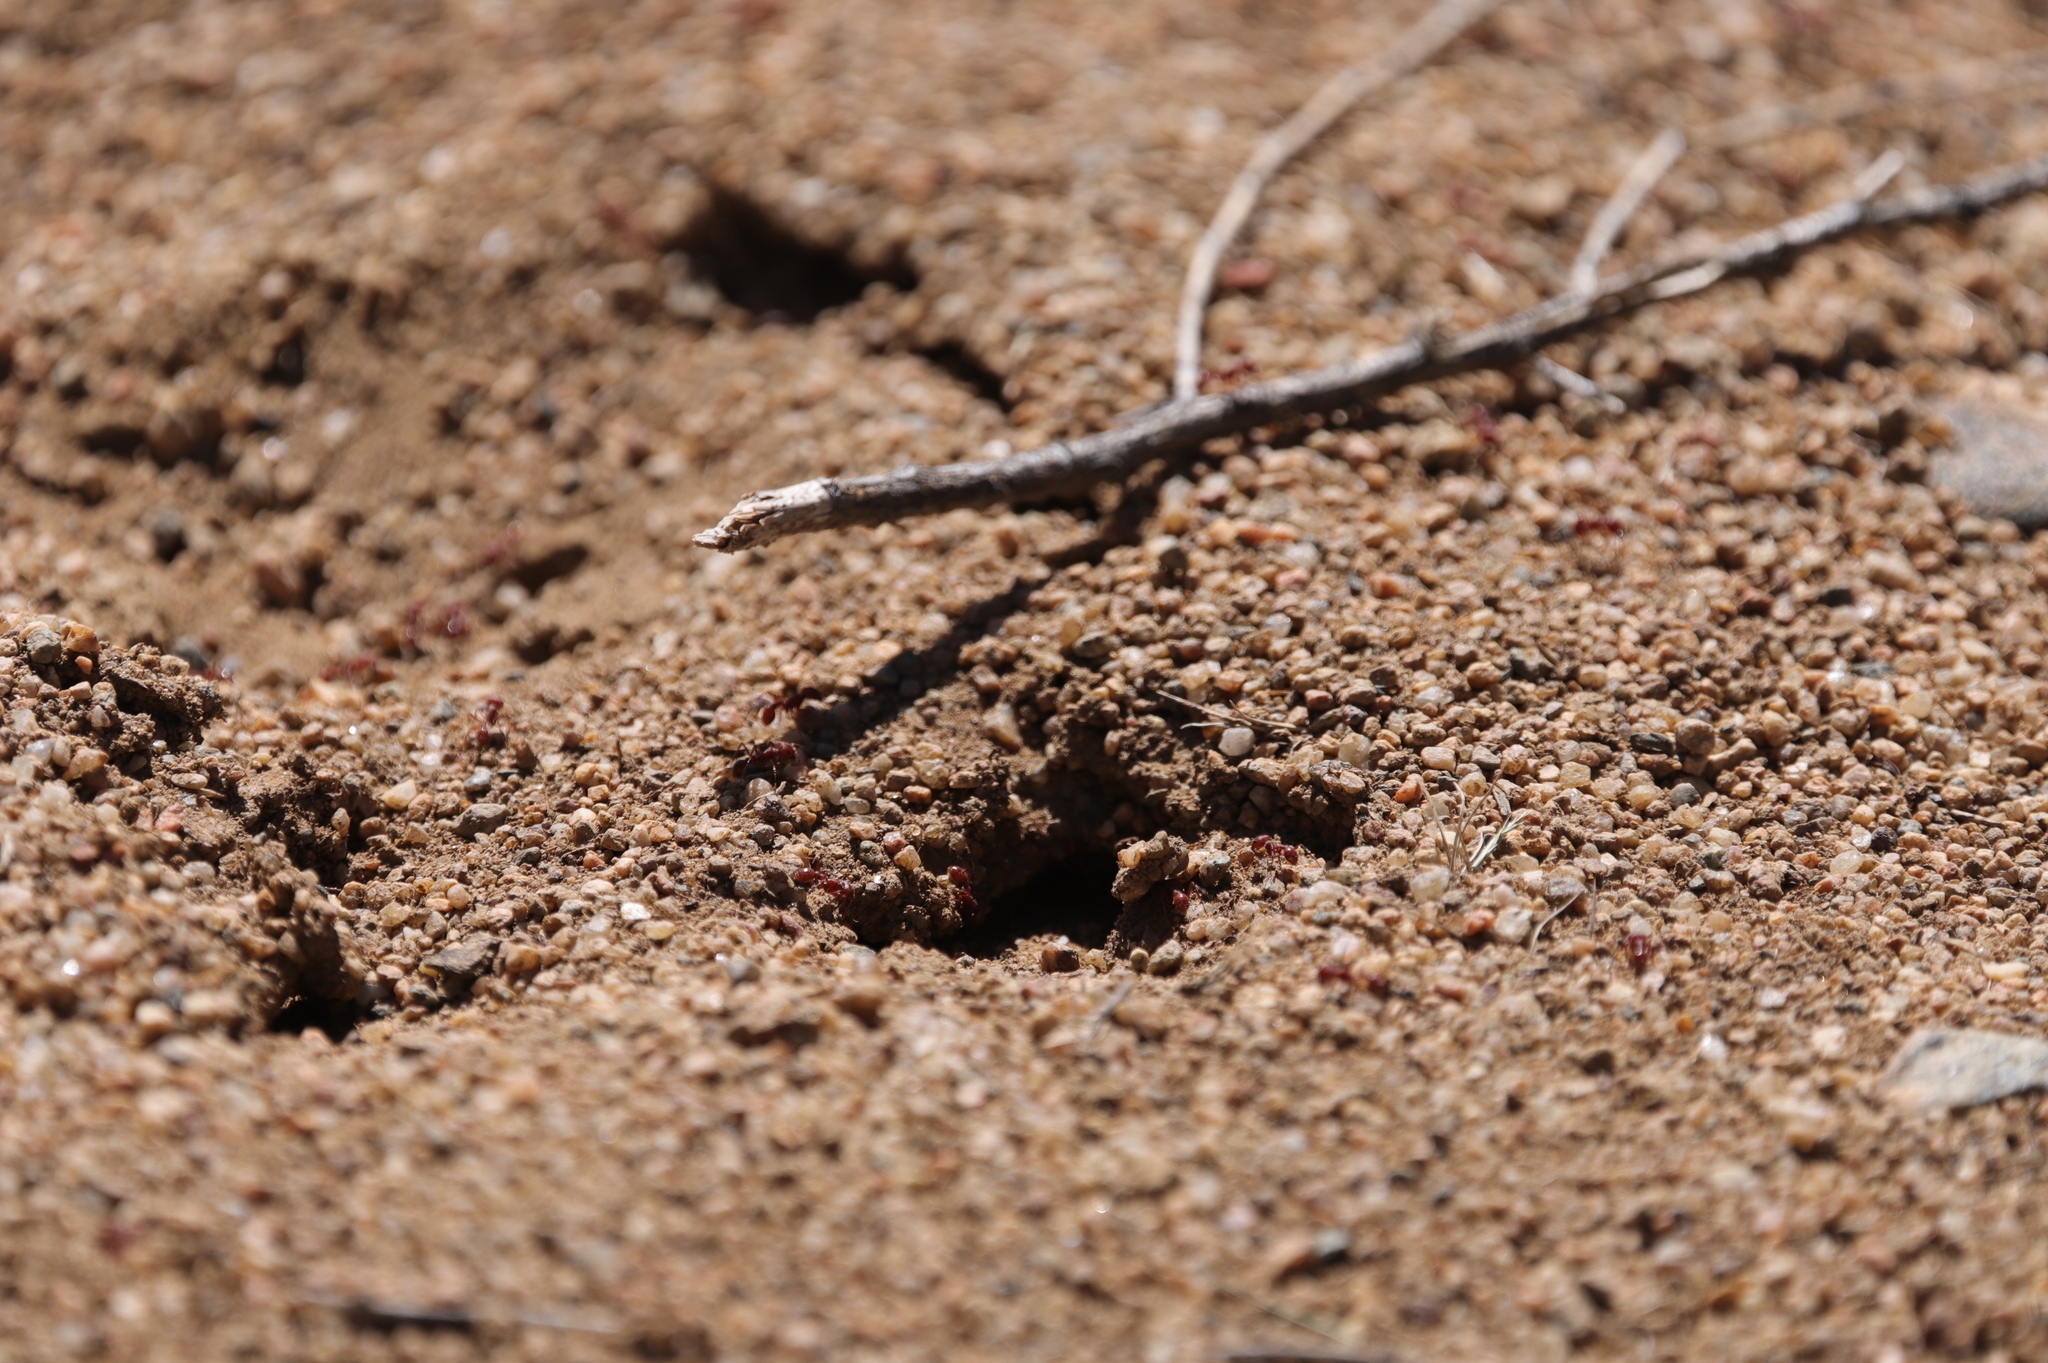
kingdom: Animalia
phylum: Arthropoda
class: Insecta
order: Hymenoptera
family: Formicidae
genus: Pogonomyrmex
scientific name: Pogonomyrmex barbatus
